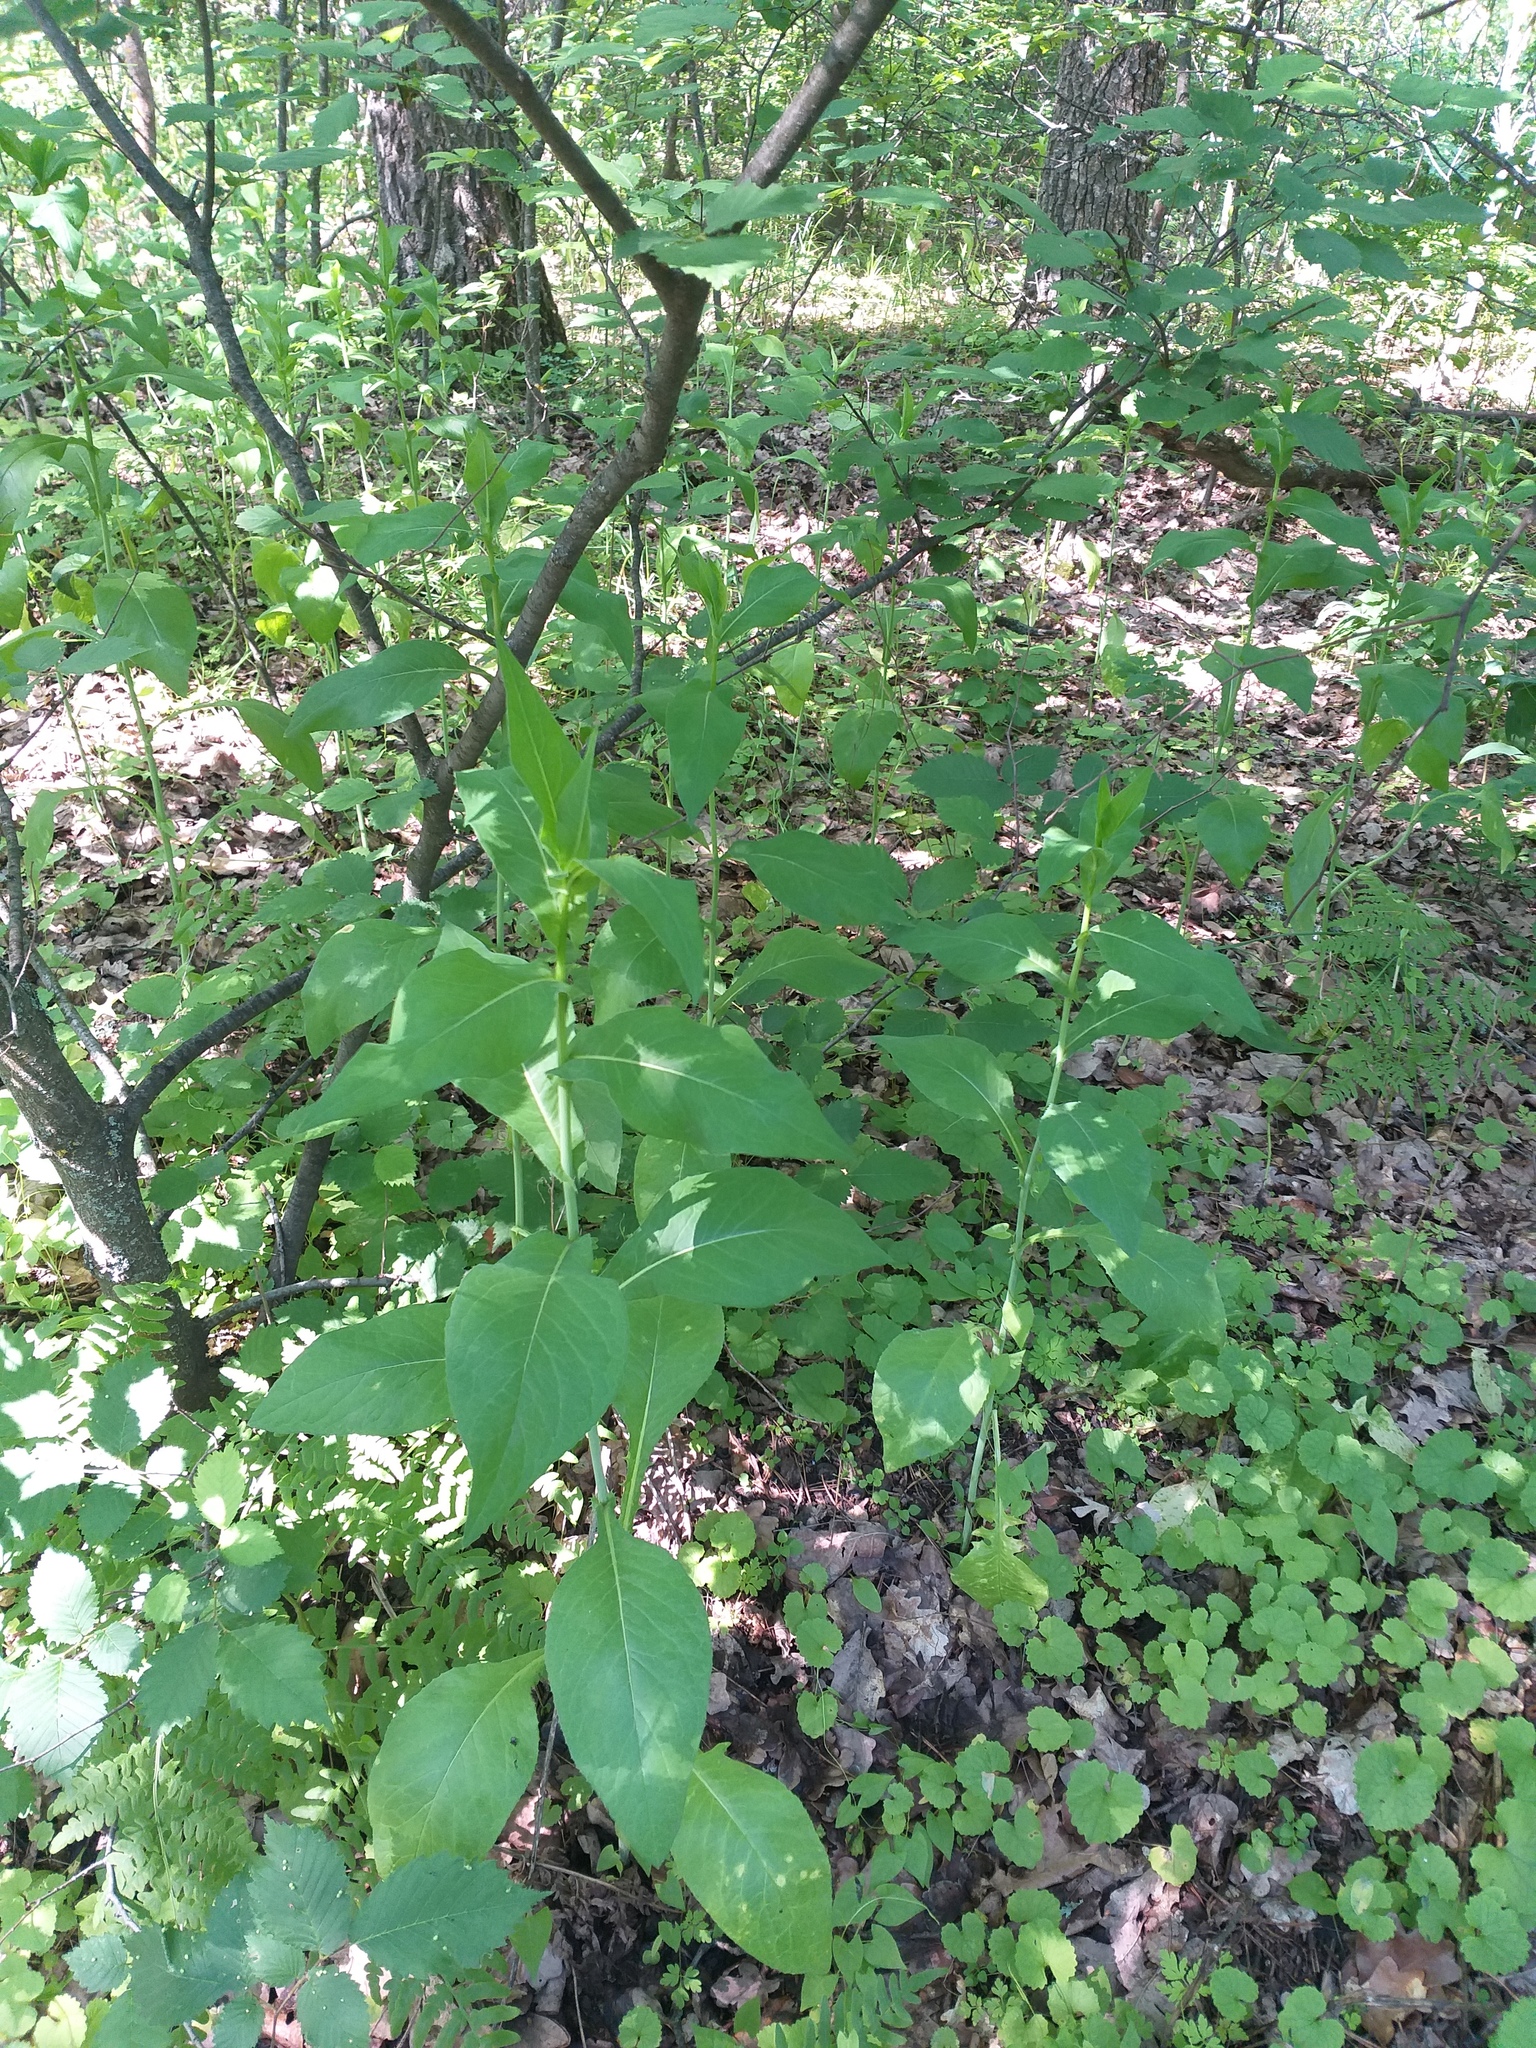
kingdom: Plantae
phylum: Tracheophyta
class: Magnoliopsida
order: Asterales
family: Asteraceae
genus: Lactuca
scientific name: Lactuca quercina
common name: Wild lettuce
